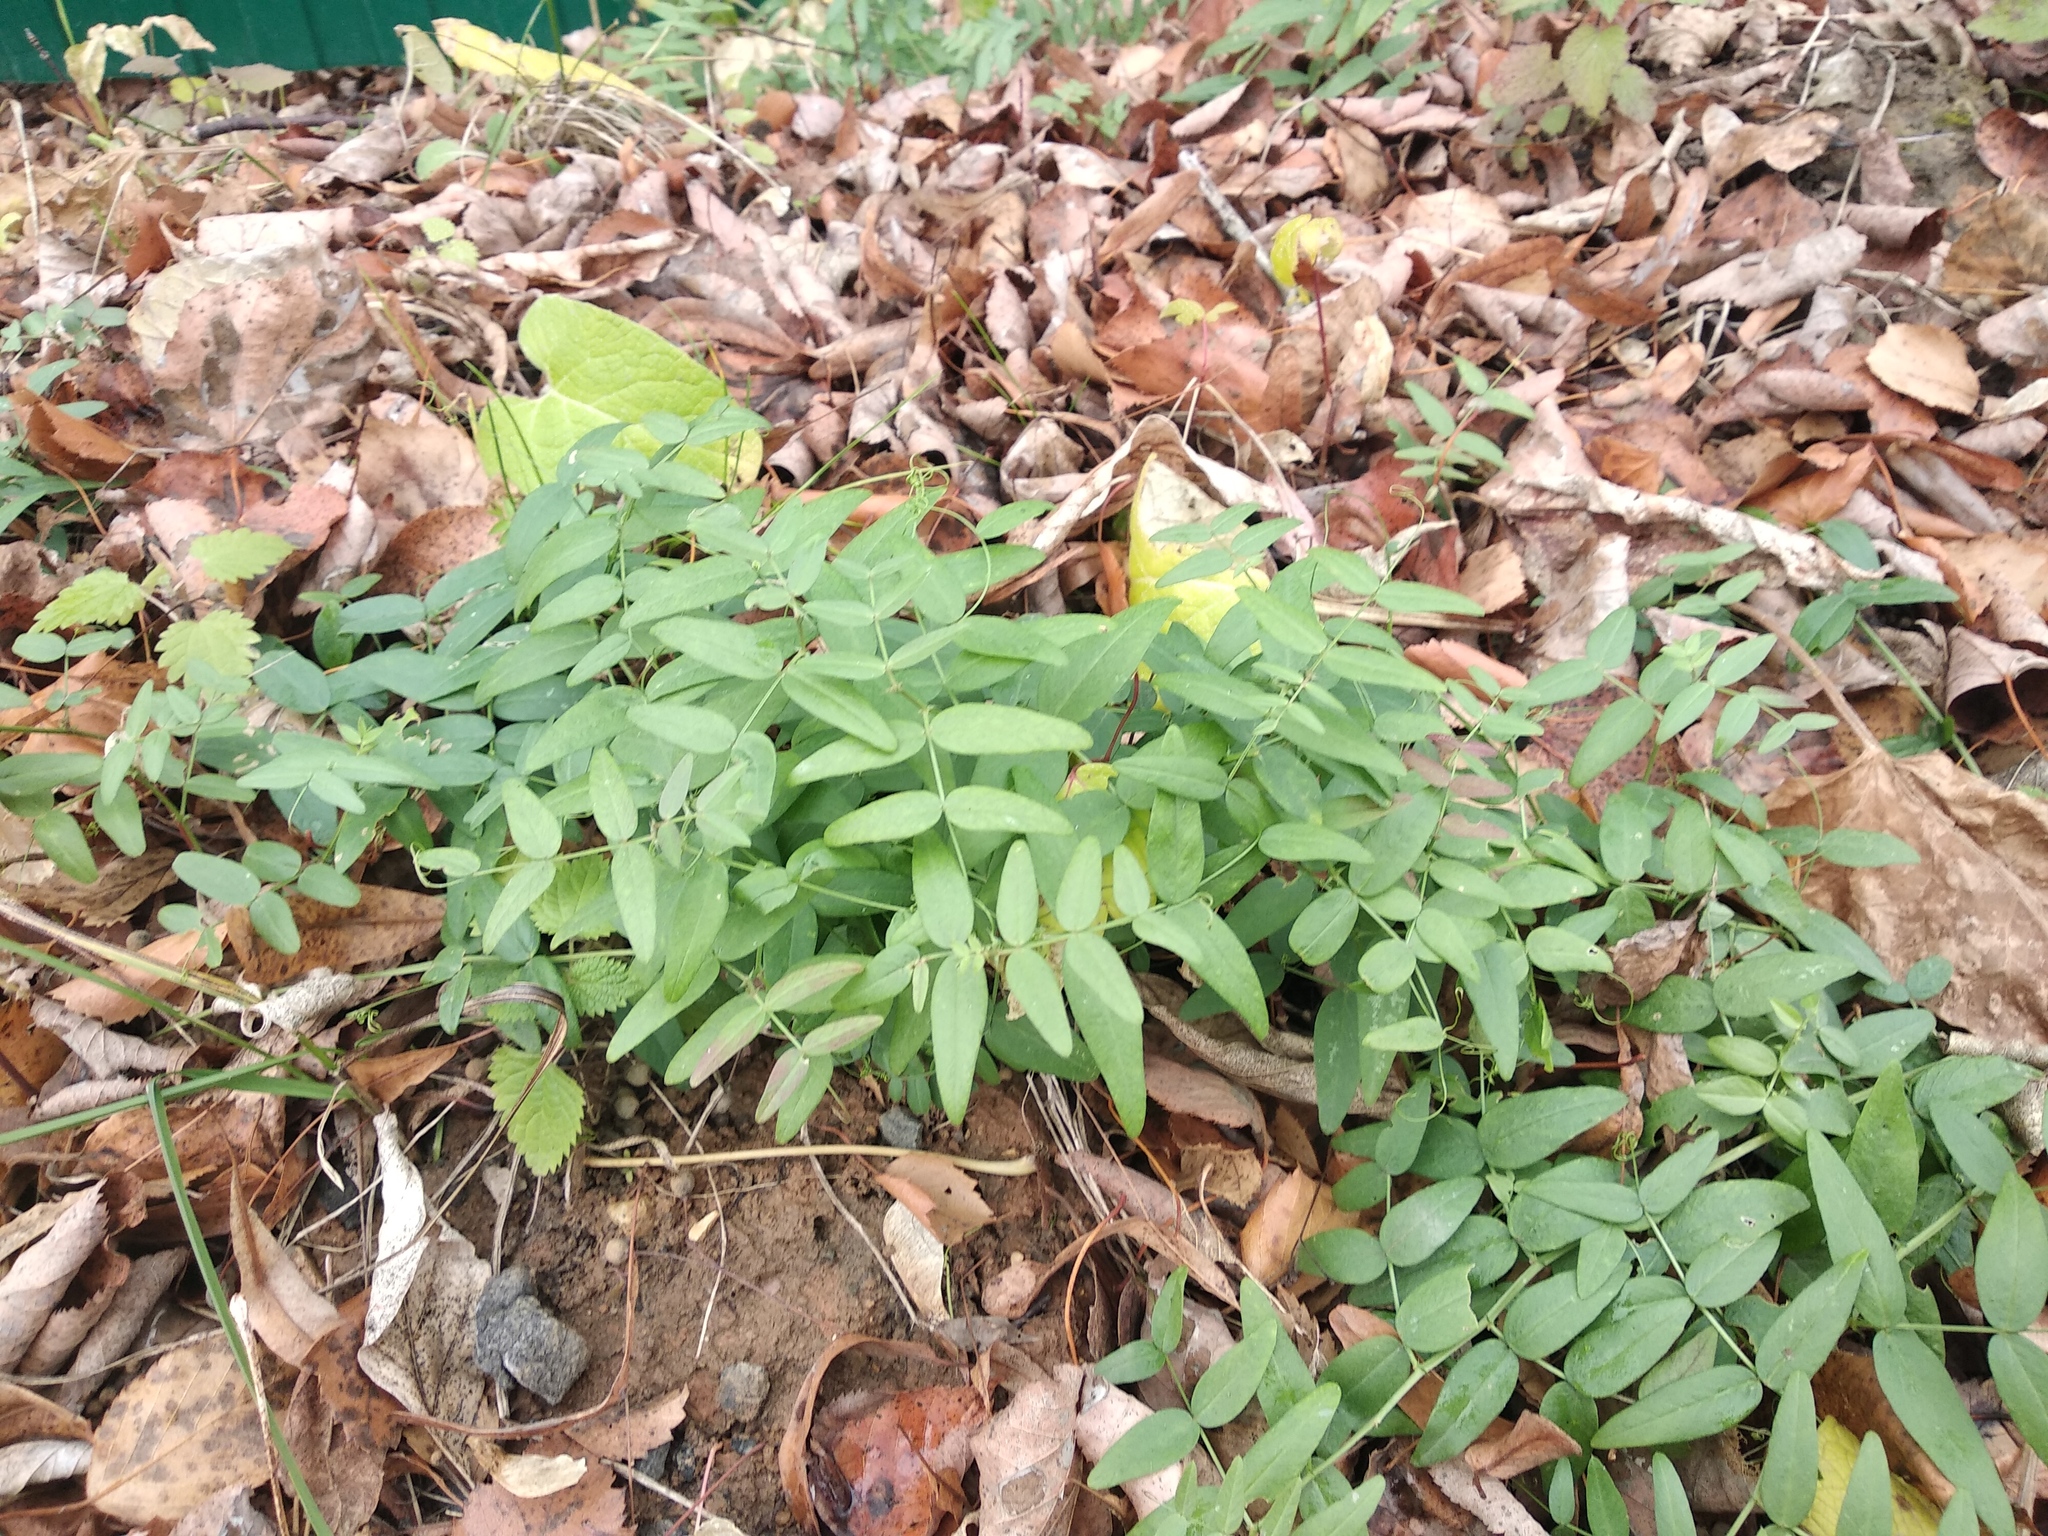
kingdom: Plantae
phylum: Tracheophyta
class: Magnoliopsida
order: Fabales
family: Fabaceae
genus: Vicia
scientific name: Vicia sepium
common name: Bush vetch
